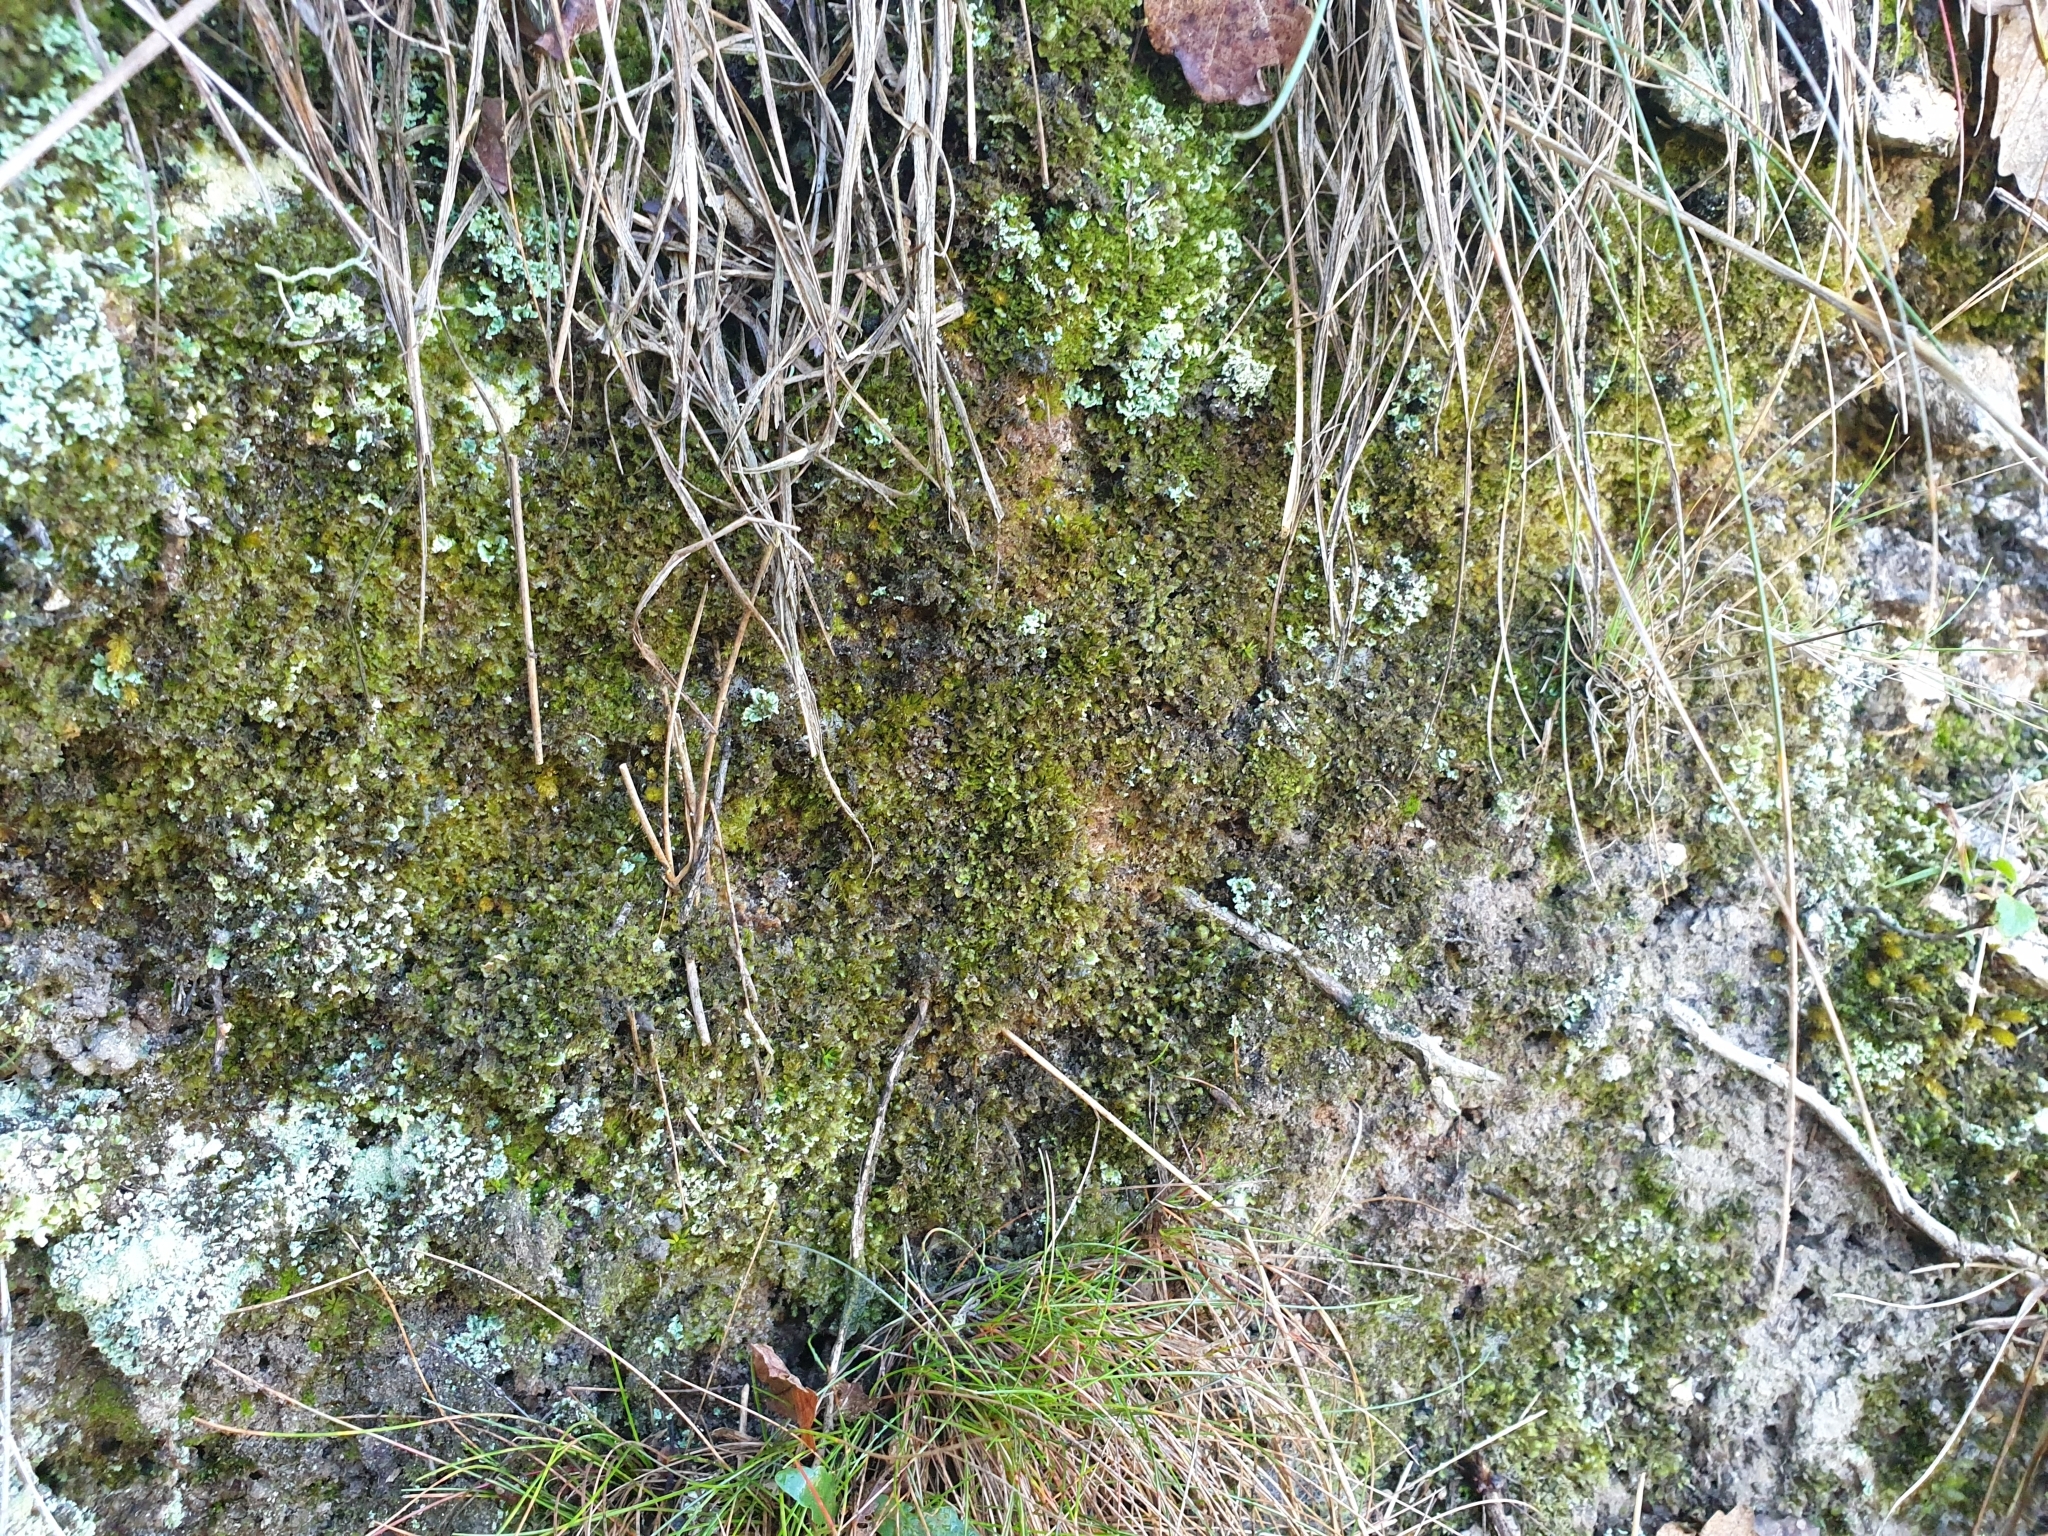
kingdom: Plantae
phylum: Marchantiophyta
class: Jungermanniopsida
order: Jungermanniales
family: Scapaniaceae
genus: Scapania
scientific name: Scapania nemorea
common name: Grove earwort
